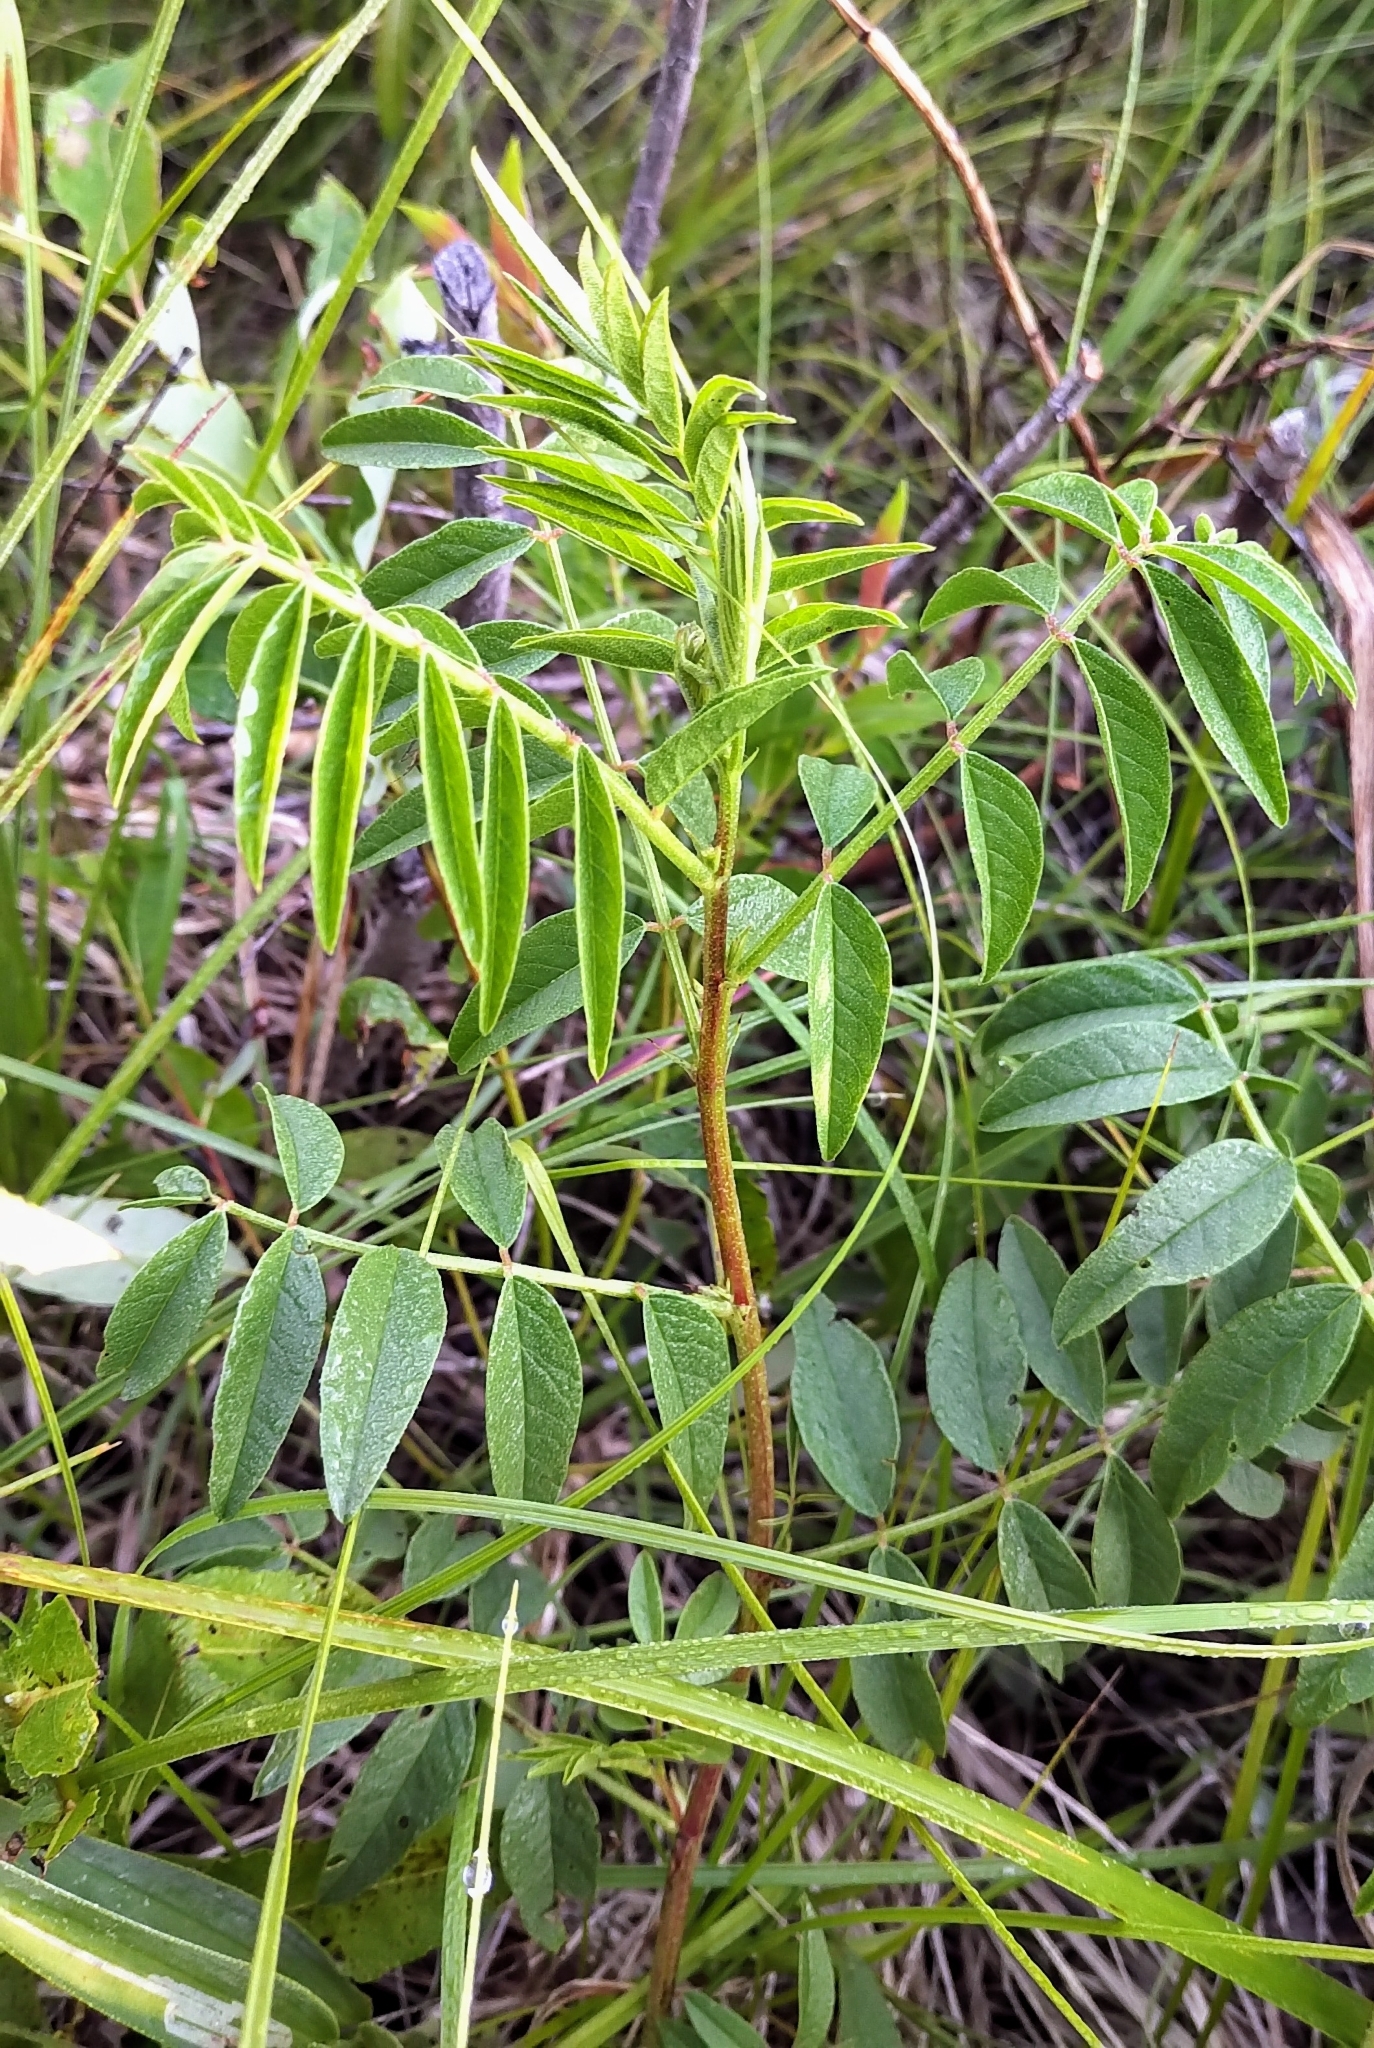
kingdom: Plantae
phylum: Tracheophyta
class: Magnoliopsida
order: Fabales
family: Fabaceae
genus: Glycyrrhiza
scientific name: Glycyrrhiza lepidota
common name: American liquorice
